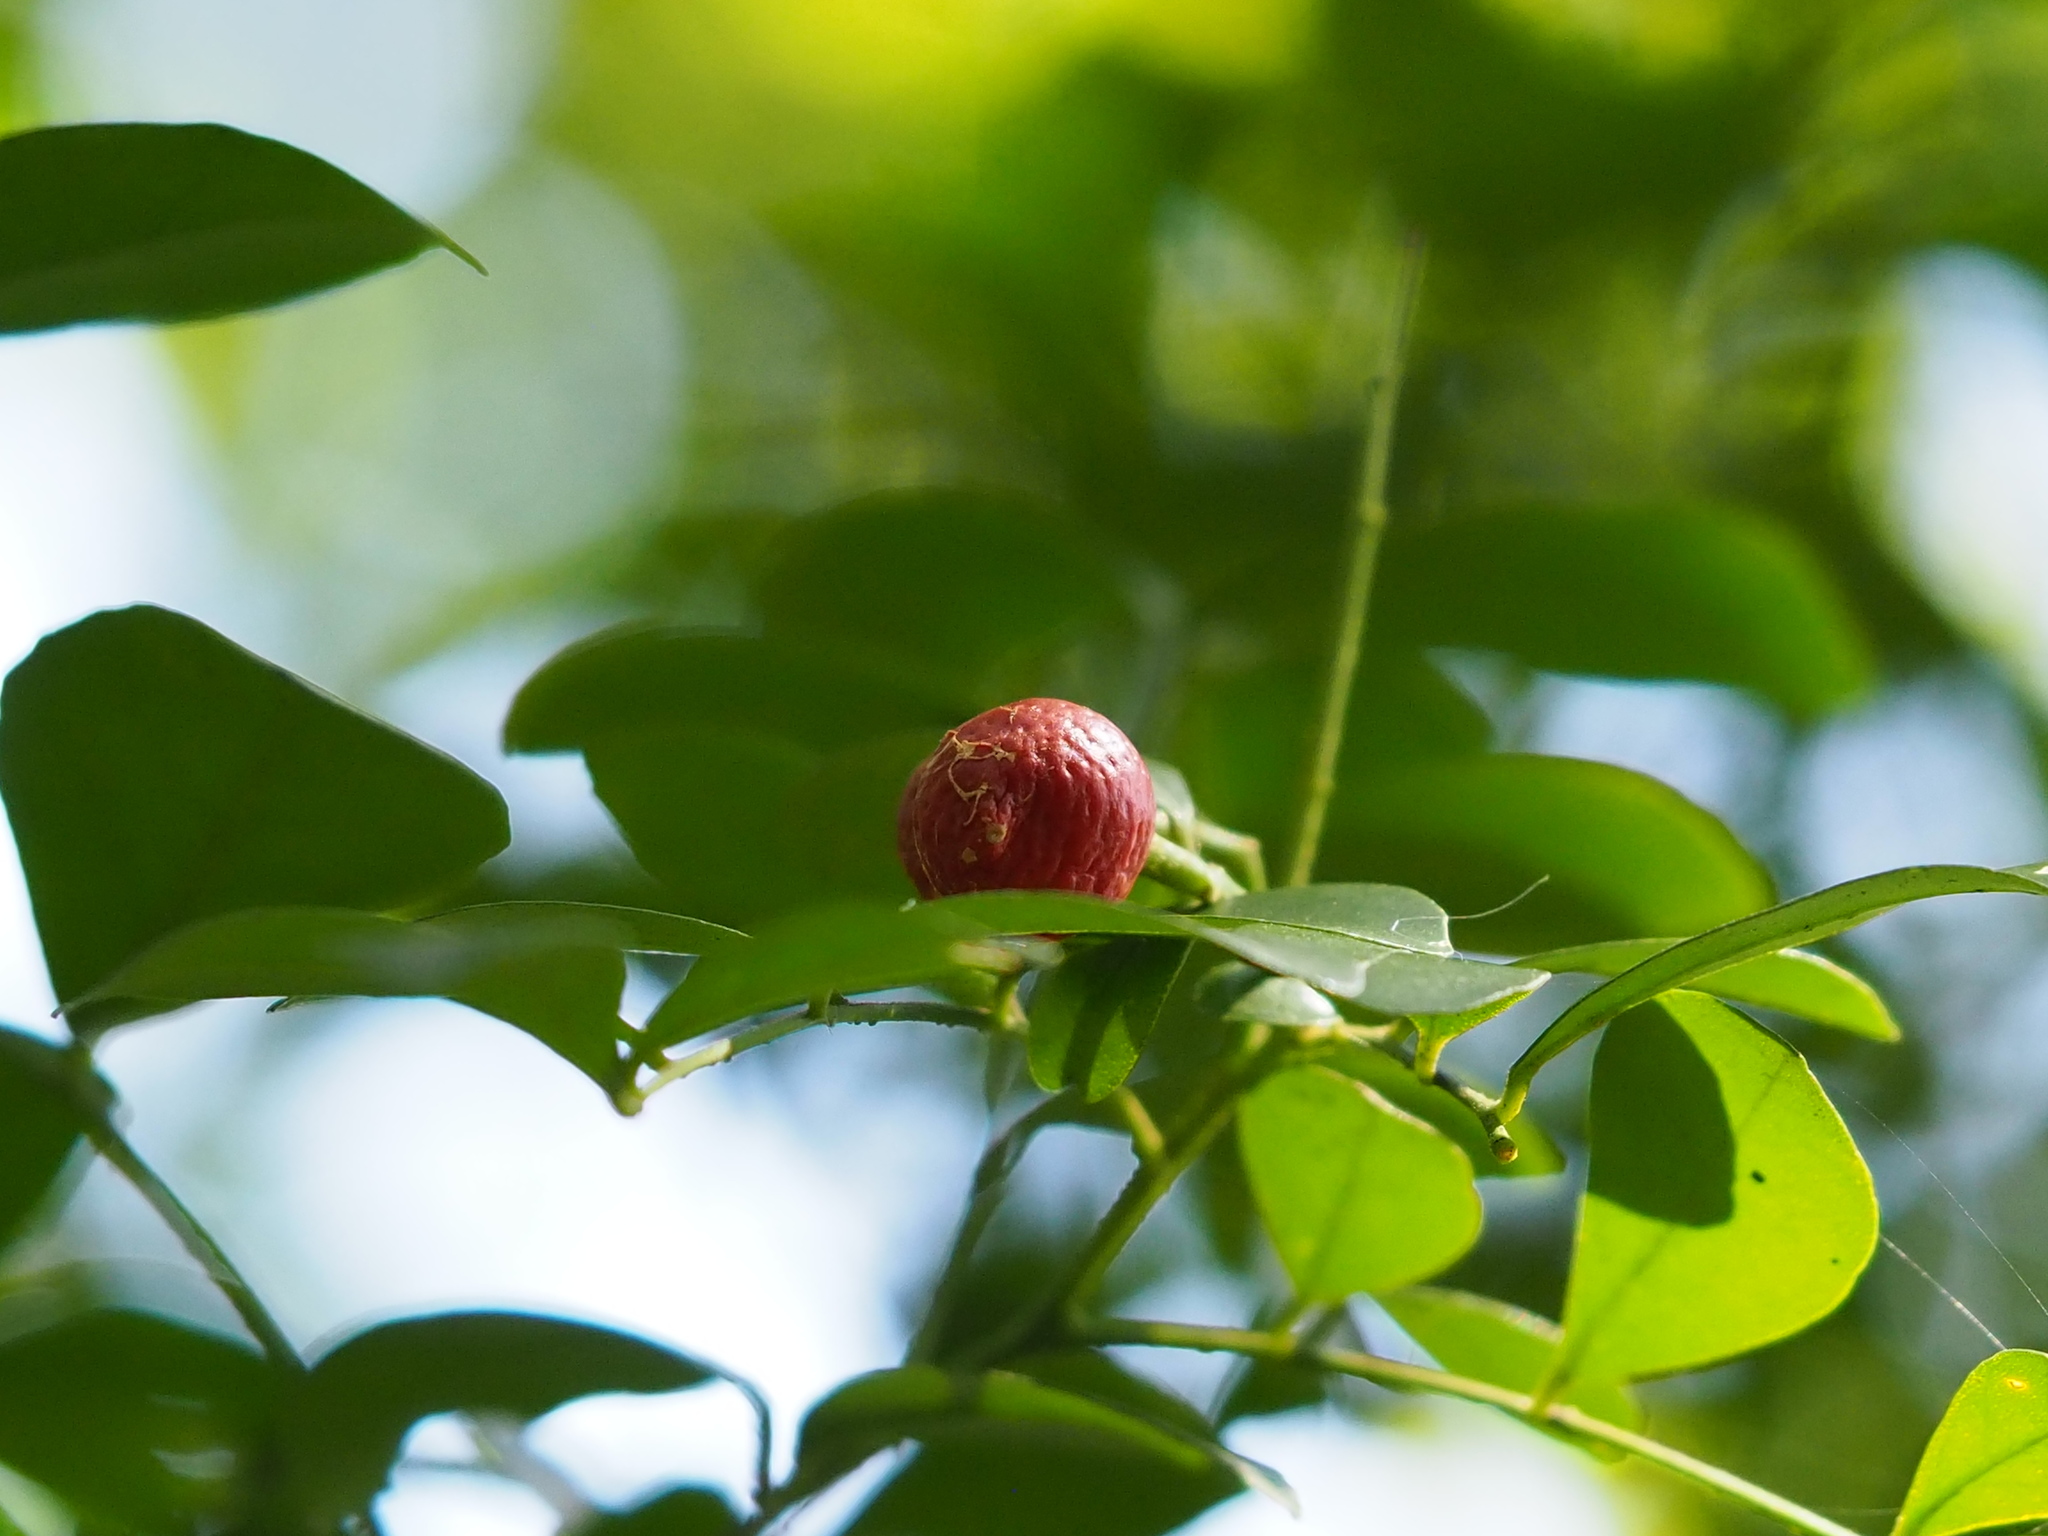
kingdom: Plantae
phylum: Tracheophyta
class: Magnoliopsida
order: Sapindales
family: Rutaceae
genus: Murraya
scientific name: Murraya paniculata
